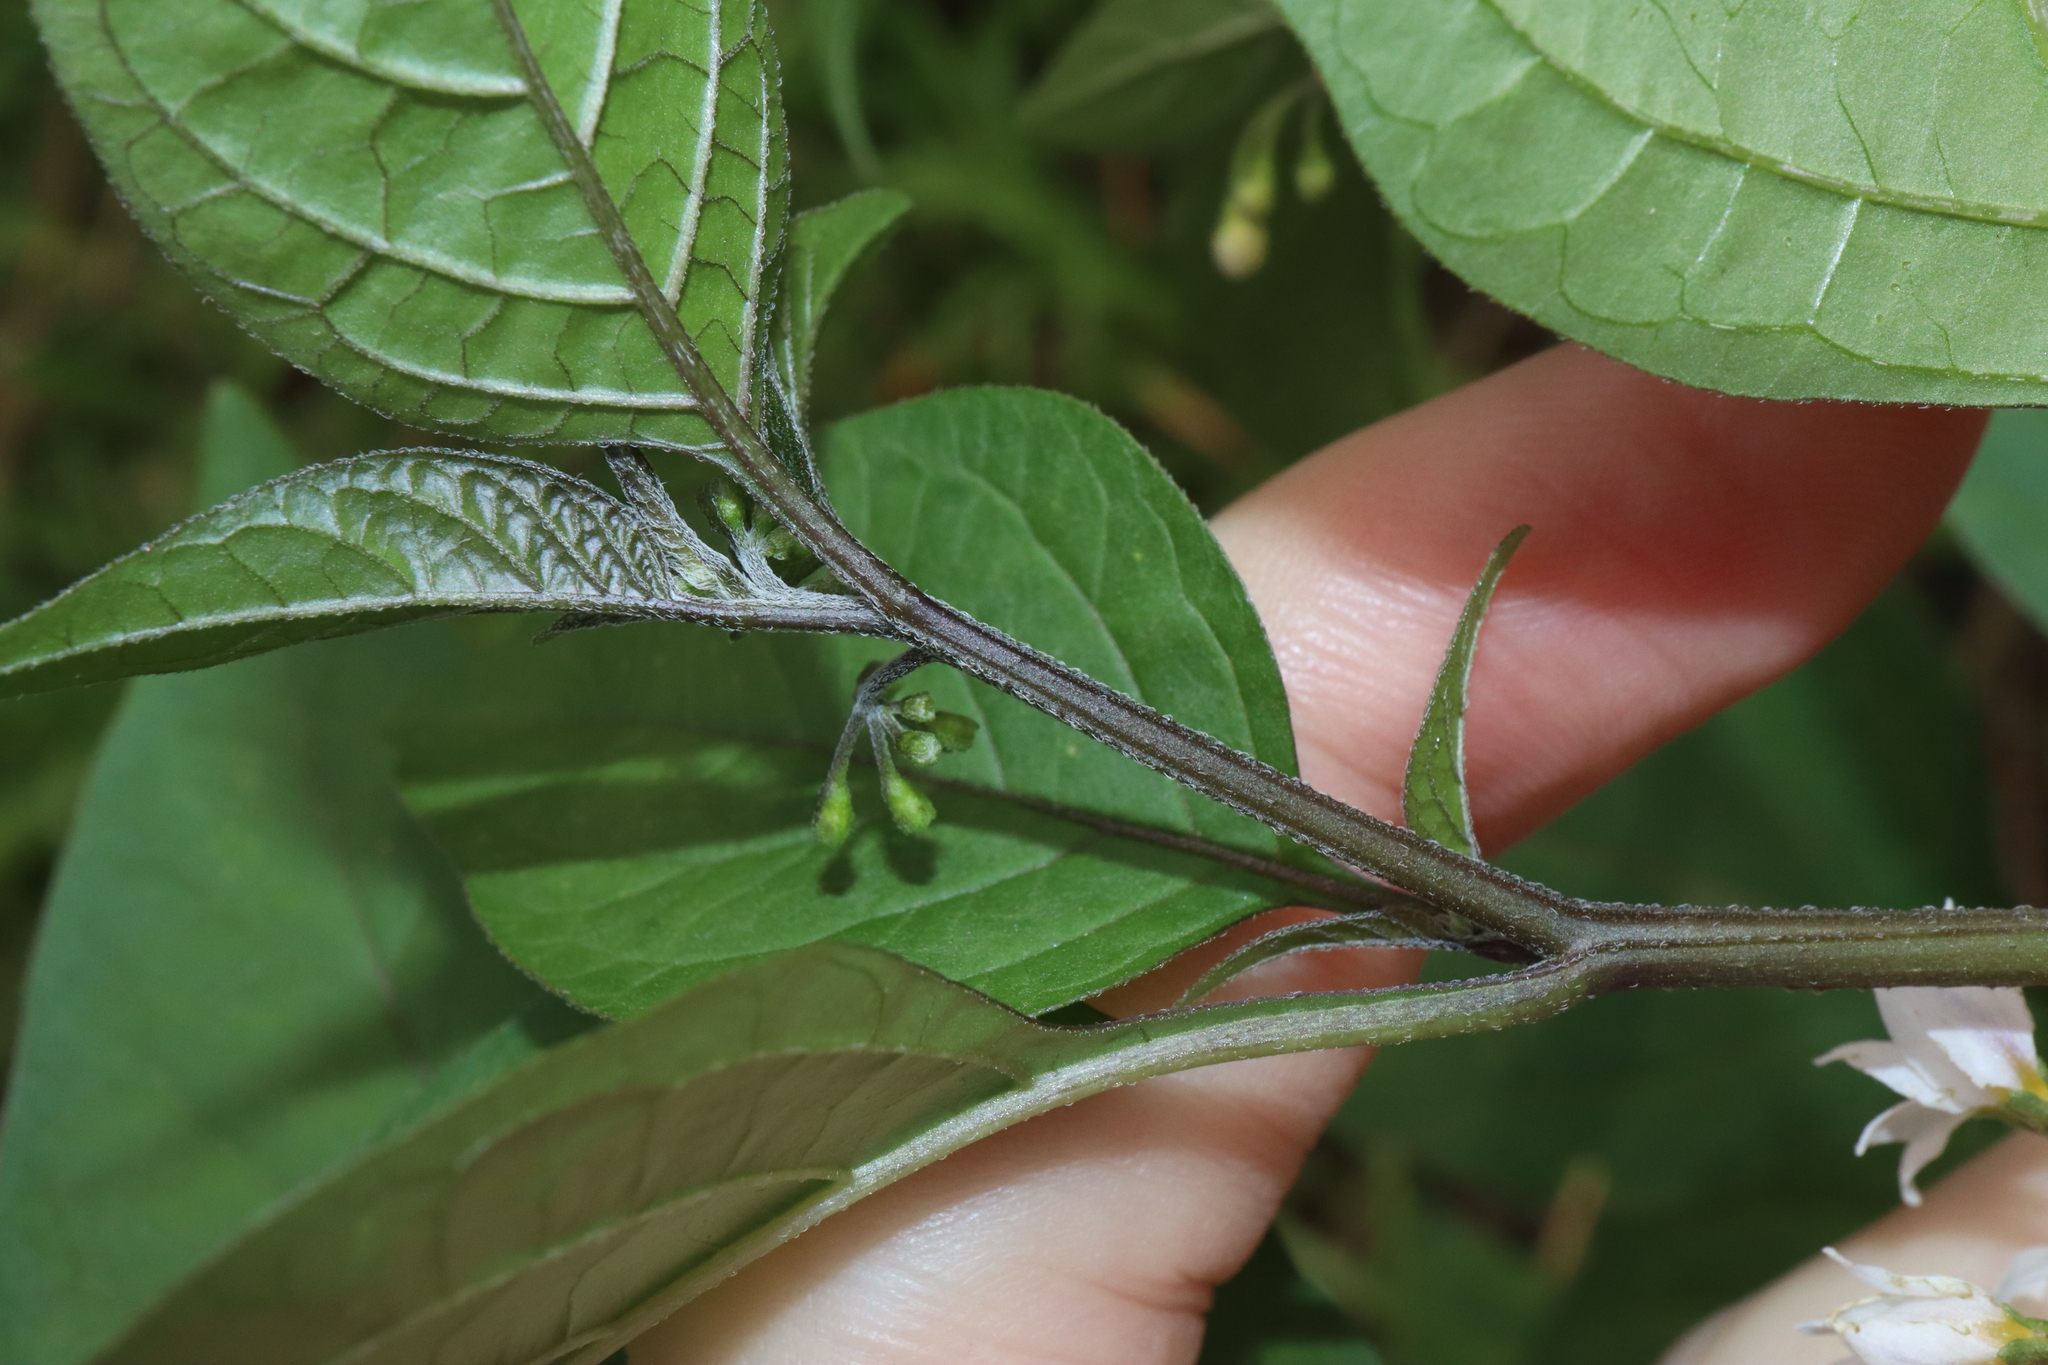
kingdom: Plantae
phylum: Tracheophyta
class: Magnoliopsida
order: Solanales
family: Solanaceae
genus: Solanum
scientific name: Solanum americanum
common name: American black nightshade
